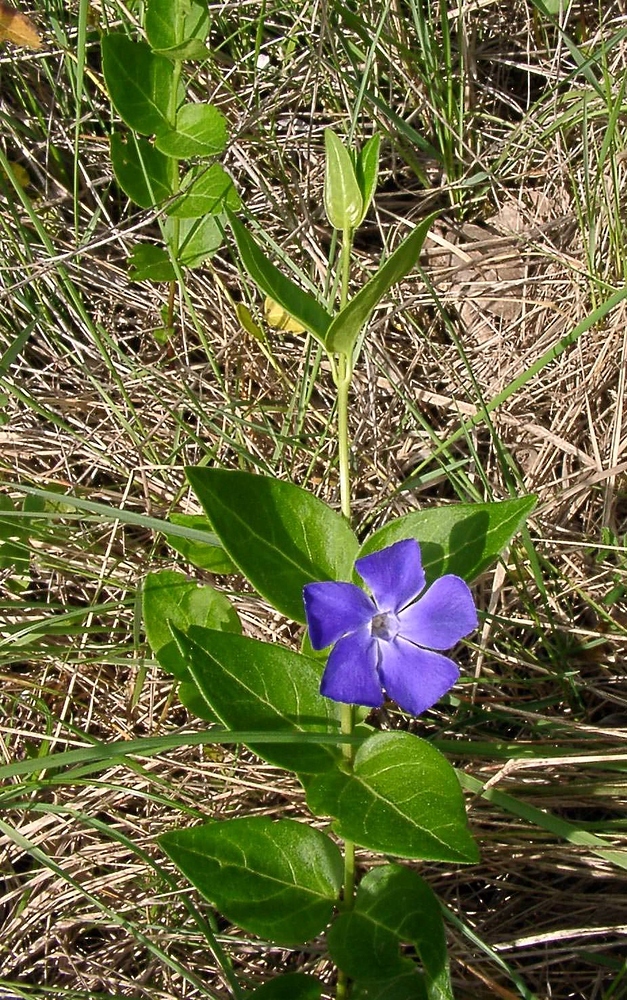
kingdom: Plantae
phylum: Tracheophyta
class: Magnoliopsida
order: Gentianales
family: Apocynaceae
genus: Vinca
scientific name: Vinca major
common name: Greater periwinkle
